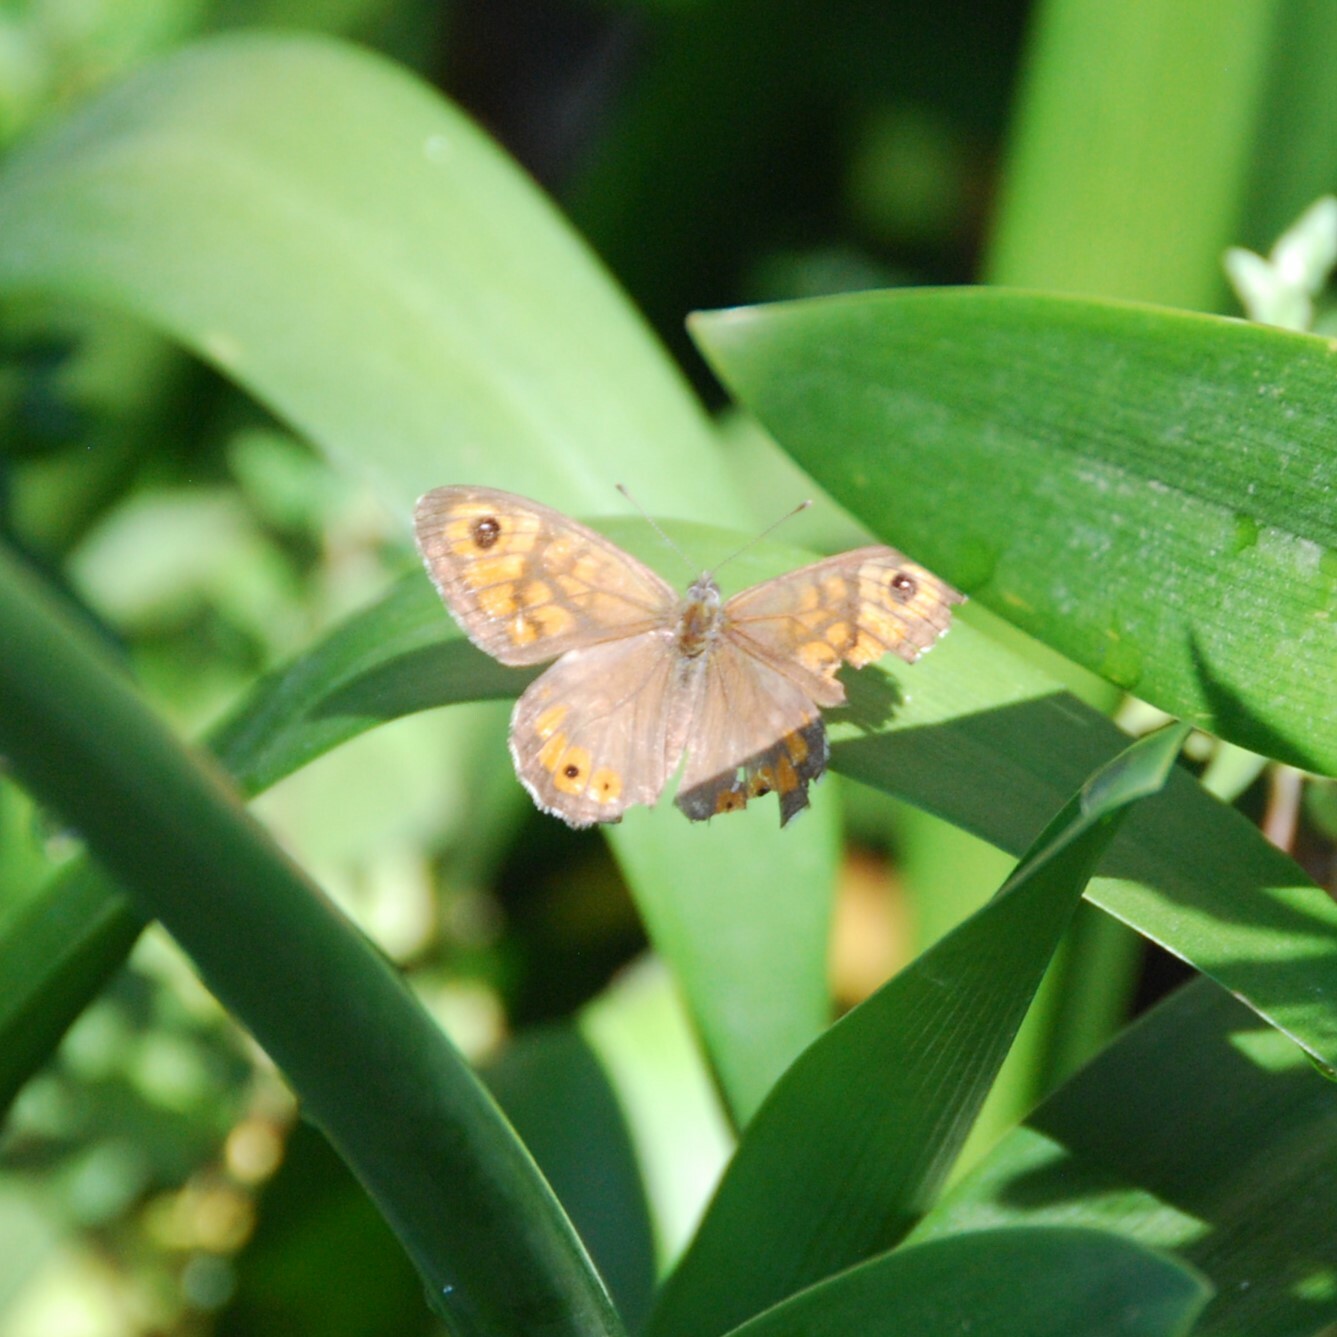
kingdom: Animalia
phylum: Arthropoda
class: Insecta
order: Lepidoptera
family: Nymphalidae
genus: Pararge
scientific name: Pararge Lasiommata maera
